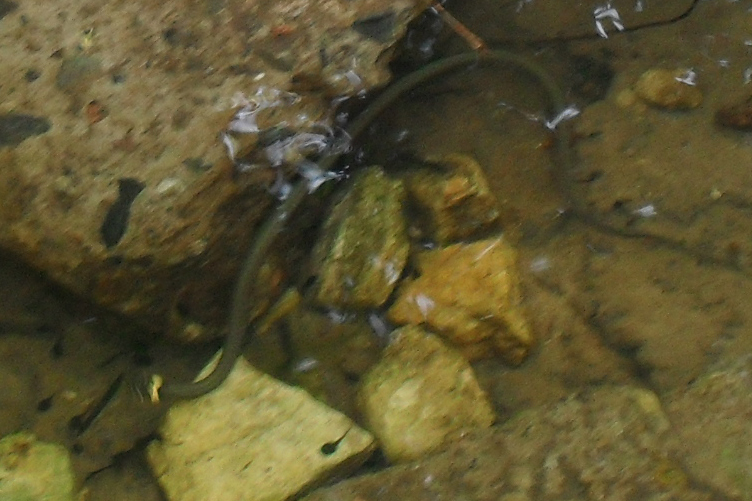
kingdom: Animalia
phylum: Chordata
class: Squamata
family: Colubridae
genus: Natrix
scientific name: Natrix natrix
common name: Grass snake
